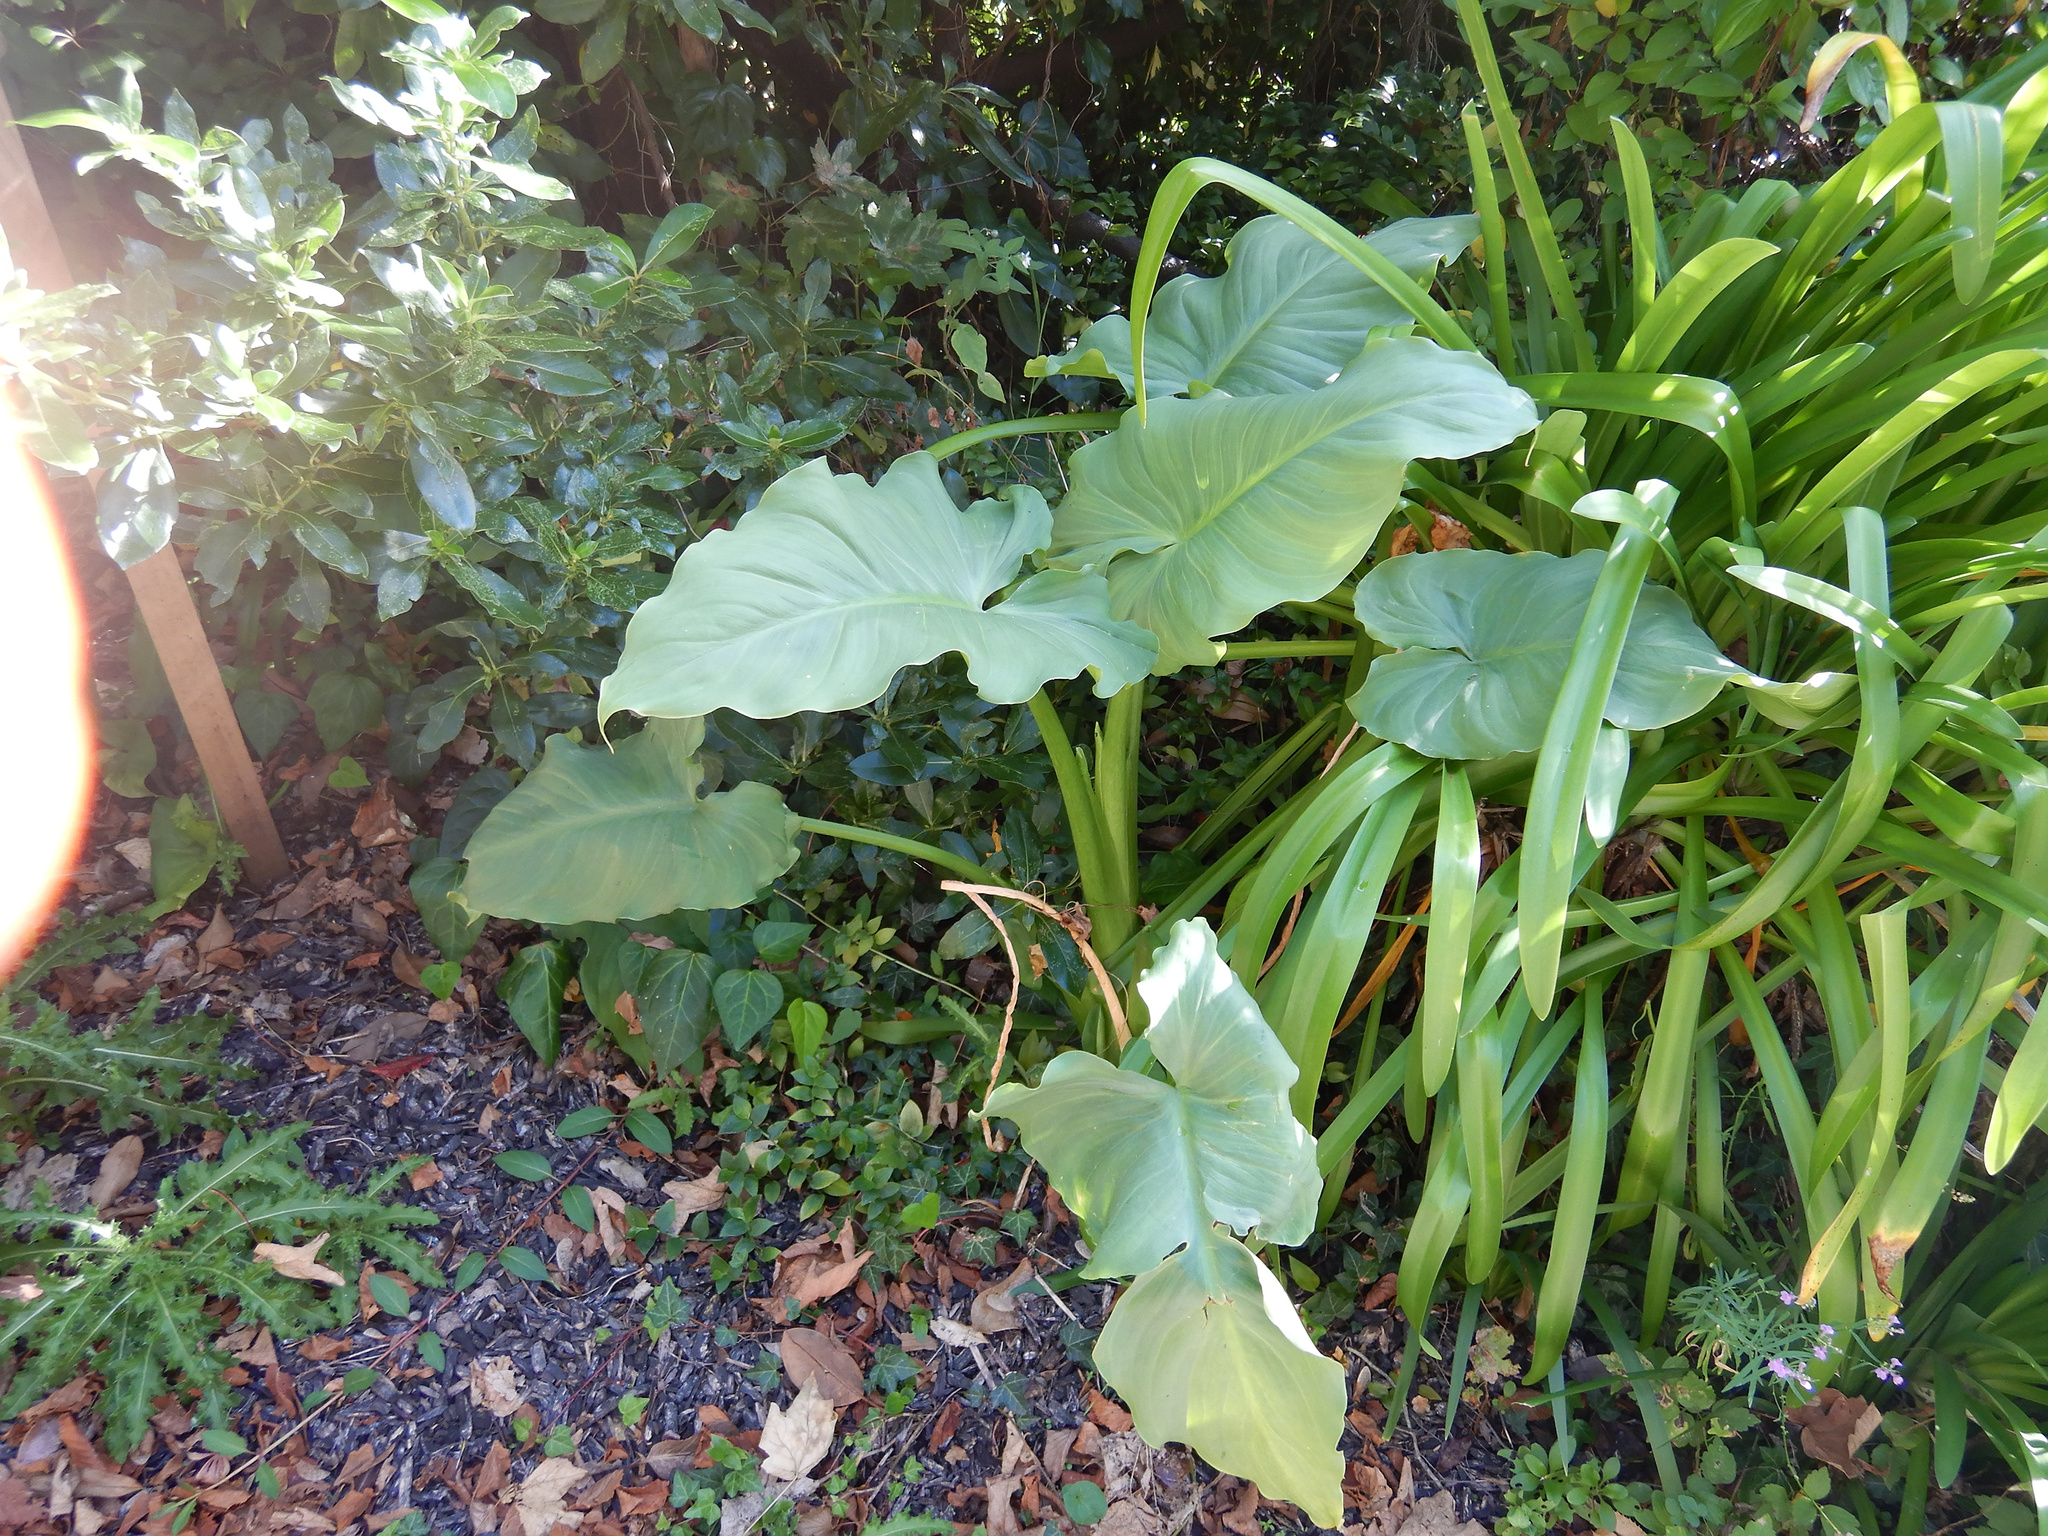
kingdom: Plantae
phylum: Tracheophyta
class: Liliopsida
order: Alismatales
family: Araceae
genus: Zantedeschia
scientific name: Zantedeschia aethiopica
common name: Altar-lily
